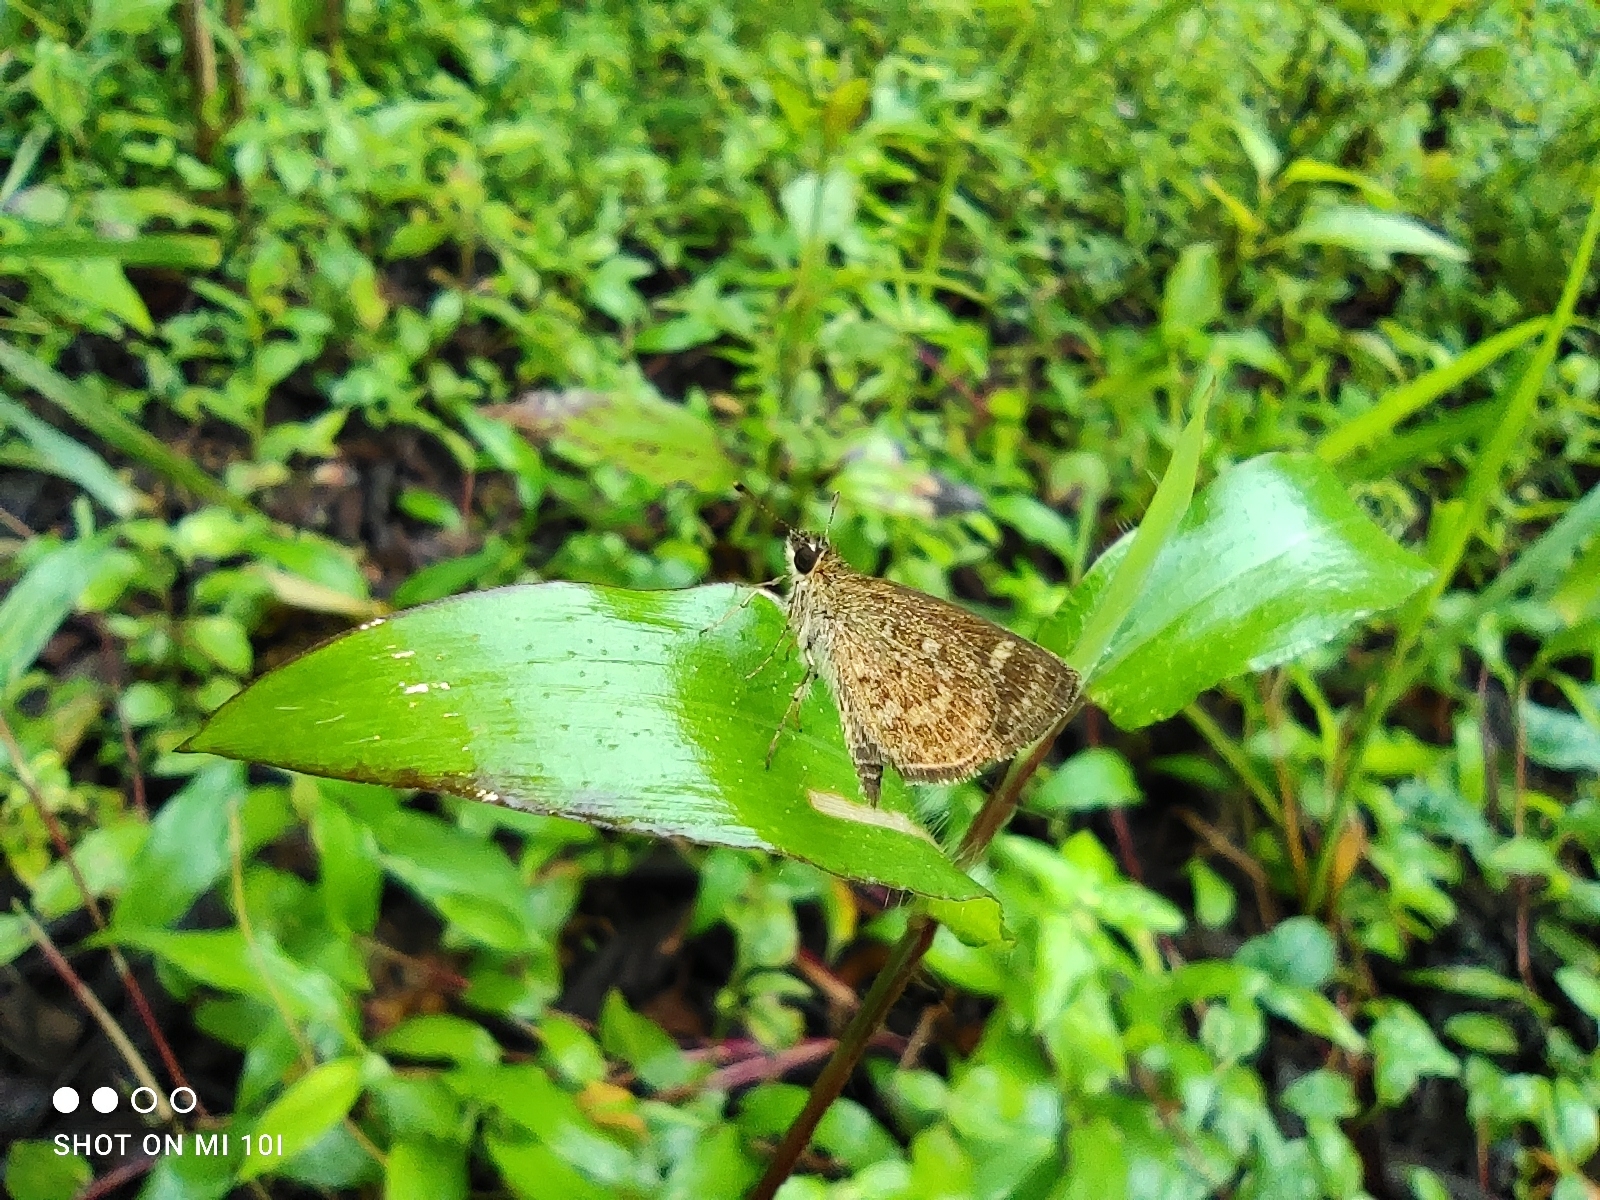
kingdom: Animalia
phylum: Arthropoda
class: Insecta
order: Lepidoptera
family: Hesperiidae
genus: Aeromachus
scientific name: Aeromachus pygmaeus
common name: Pygmy scrub hopper
